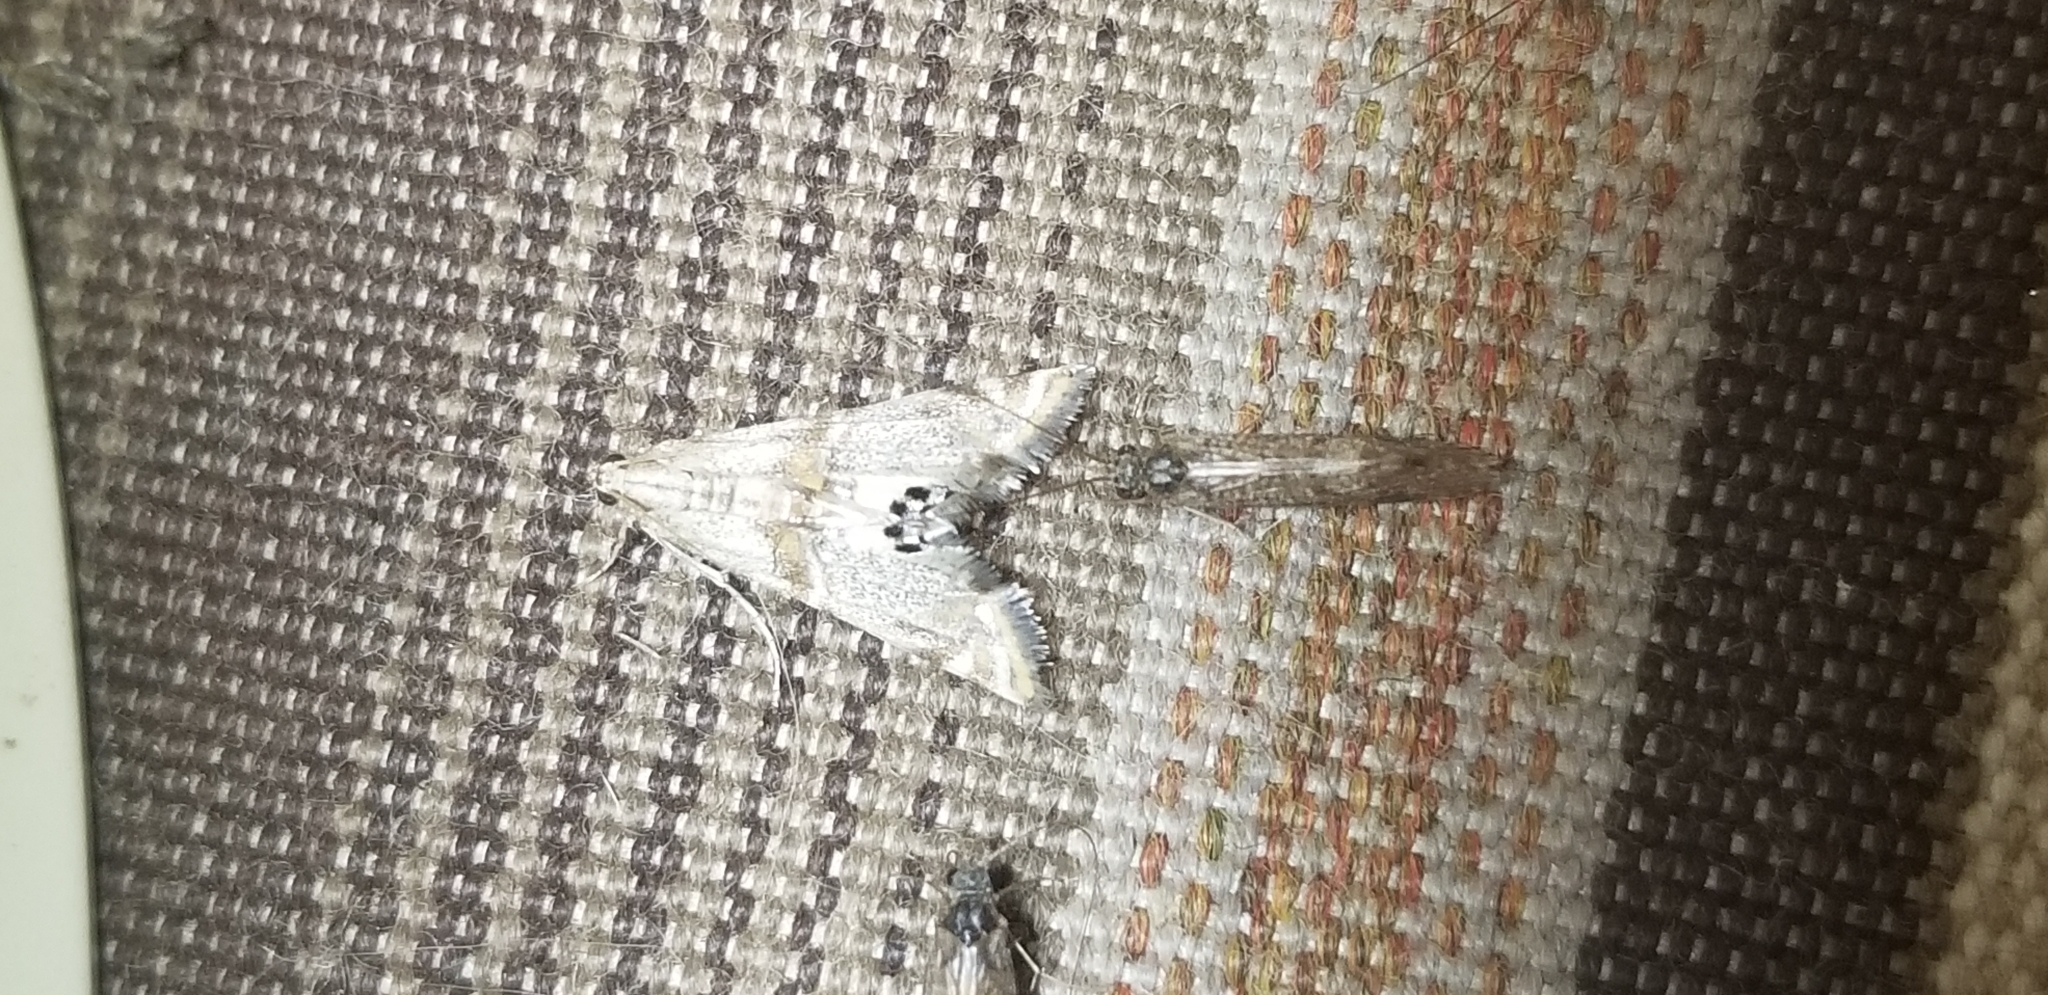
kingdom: Animalia
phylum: Arthropoda
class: Insecta
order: Lepidoptera
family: Crambidae
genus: Petrophila
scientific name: Petrophila bifascialis
